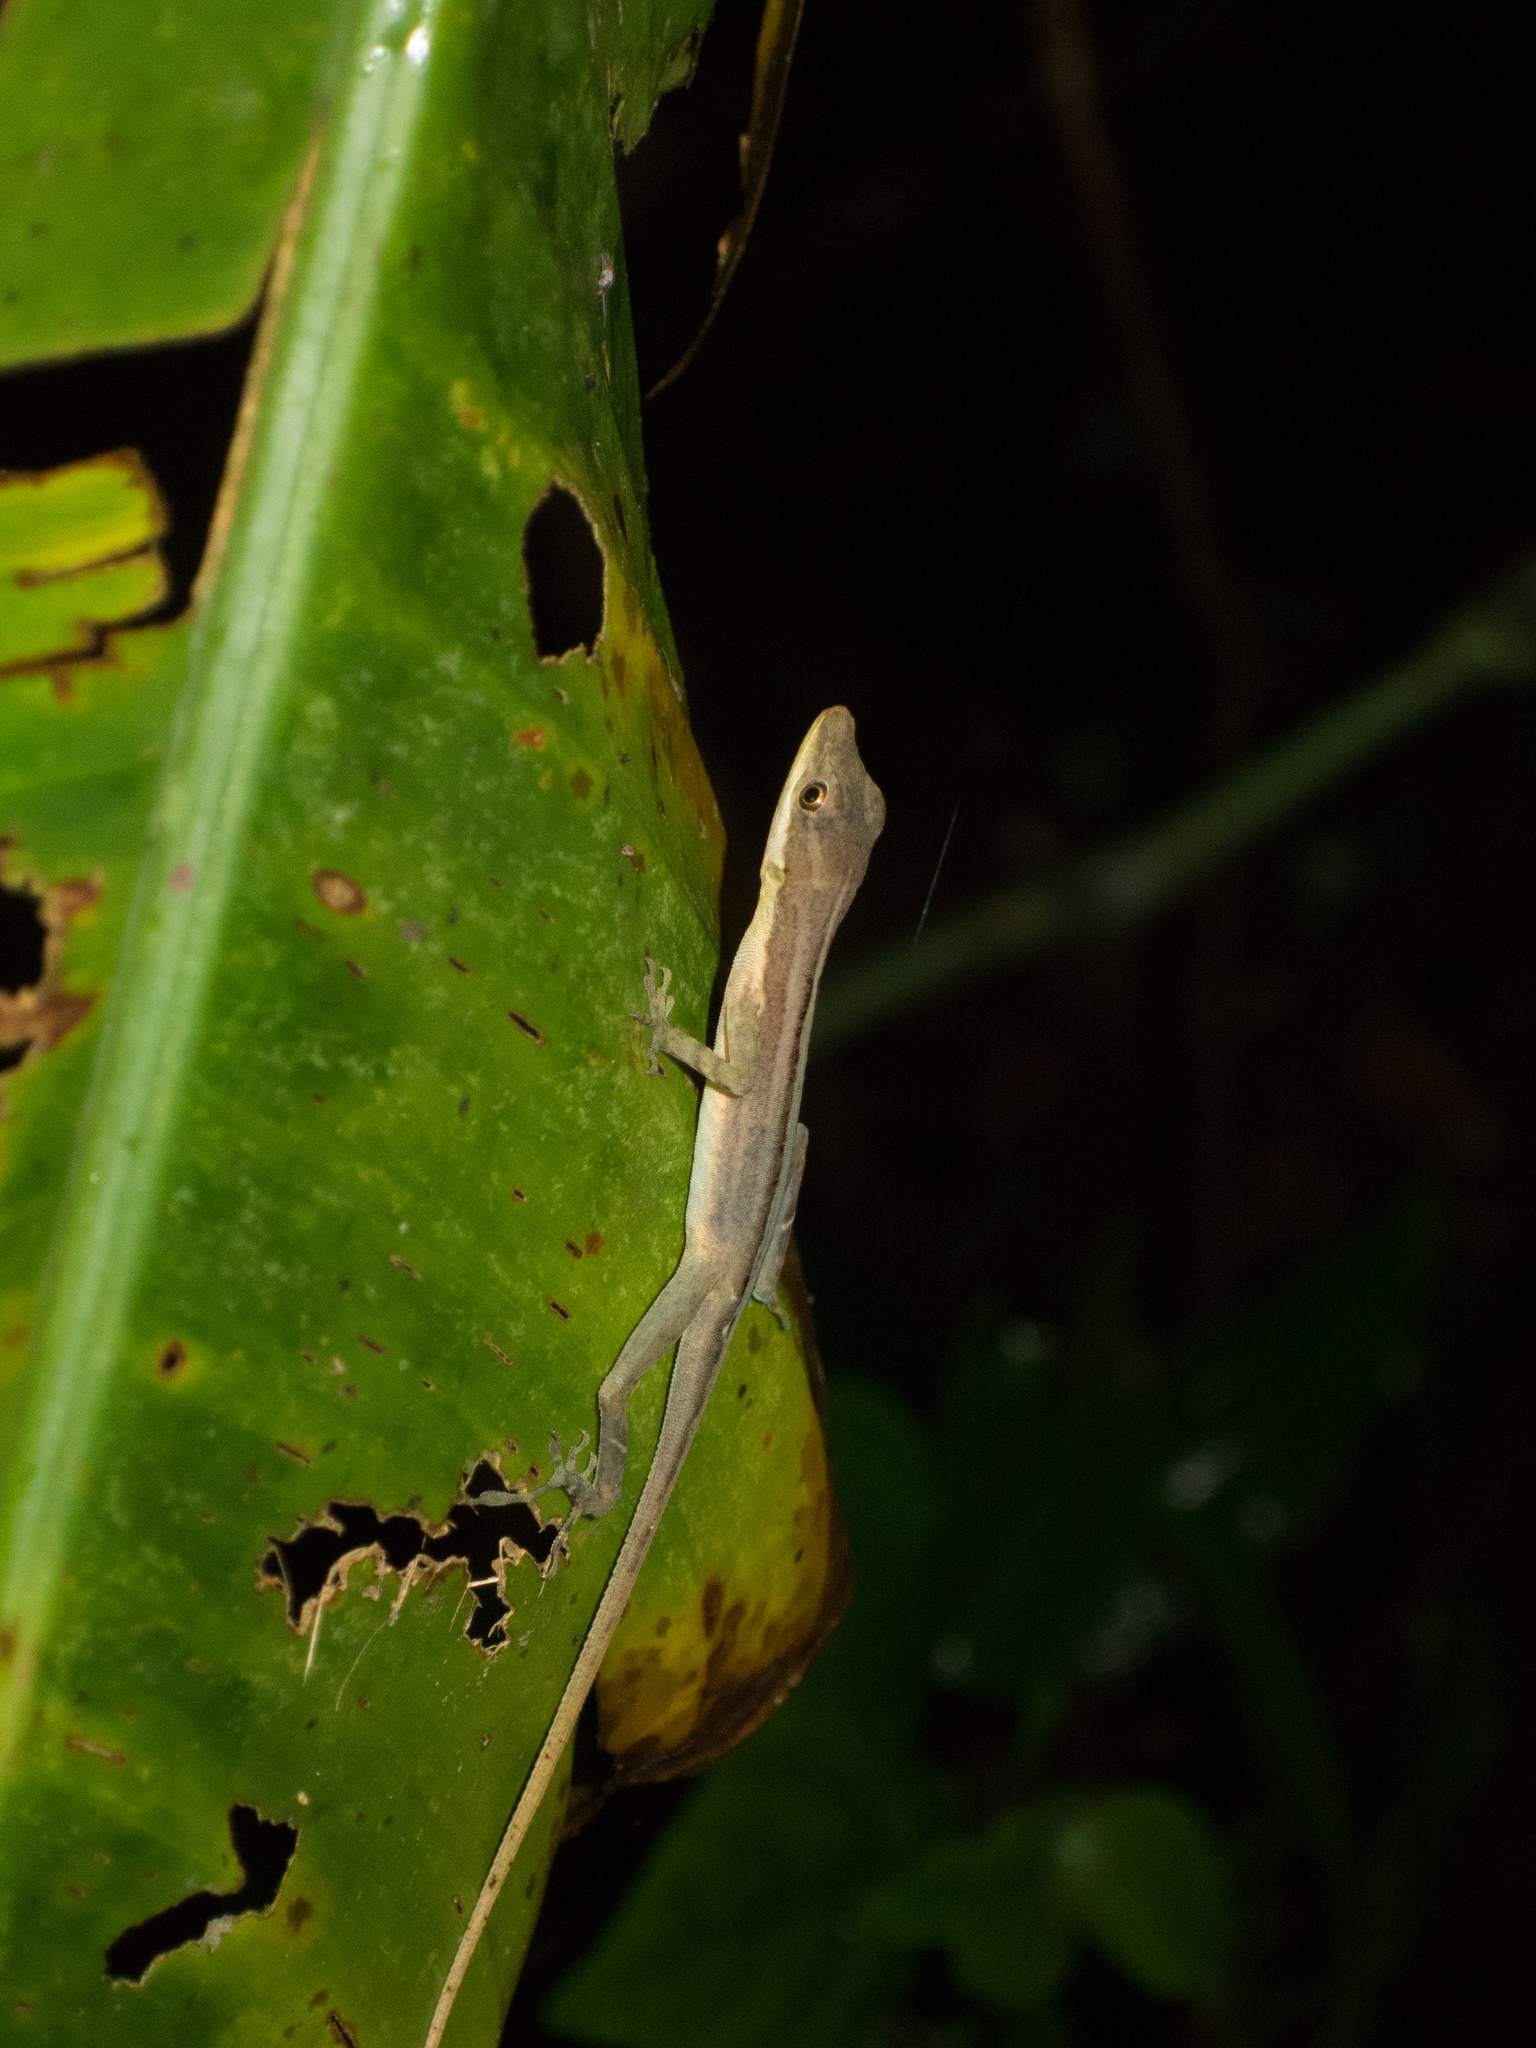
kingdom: Animalia
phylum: Chordata
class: Squamata
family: Dactyloidae
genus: Anolis
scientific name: Anolis limifrons
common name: Border anole
